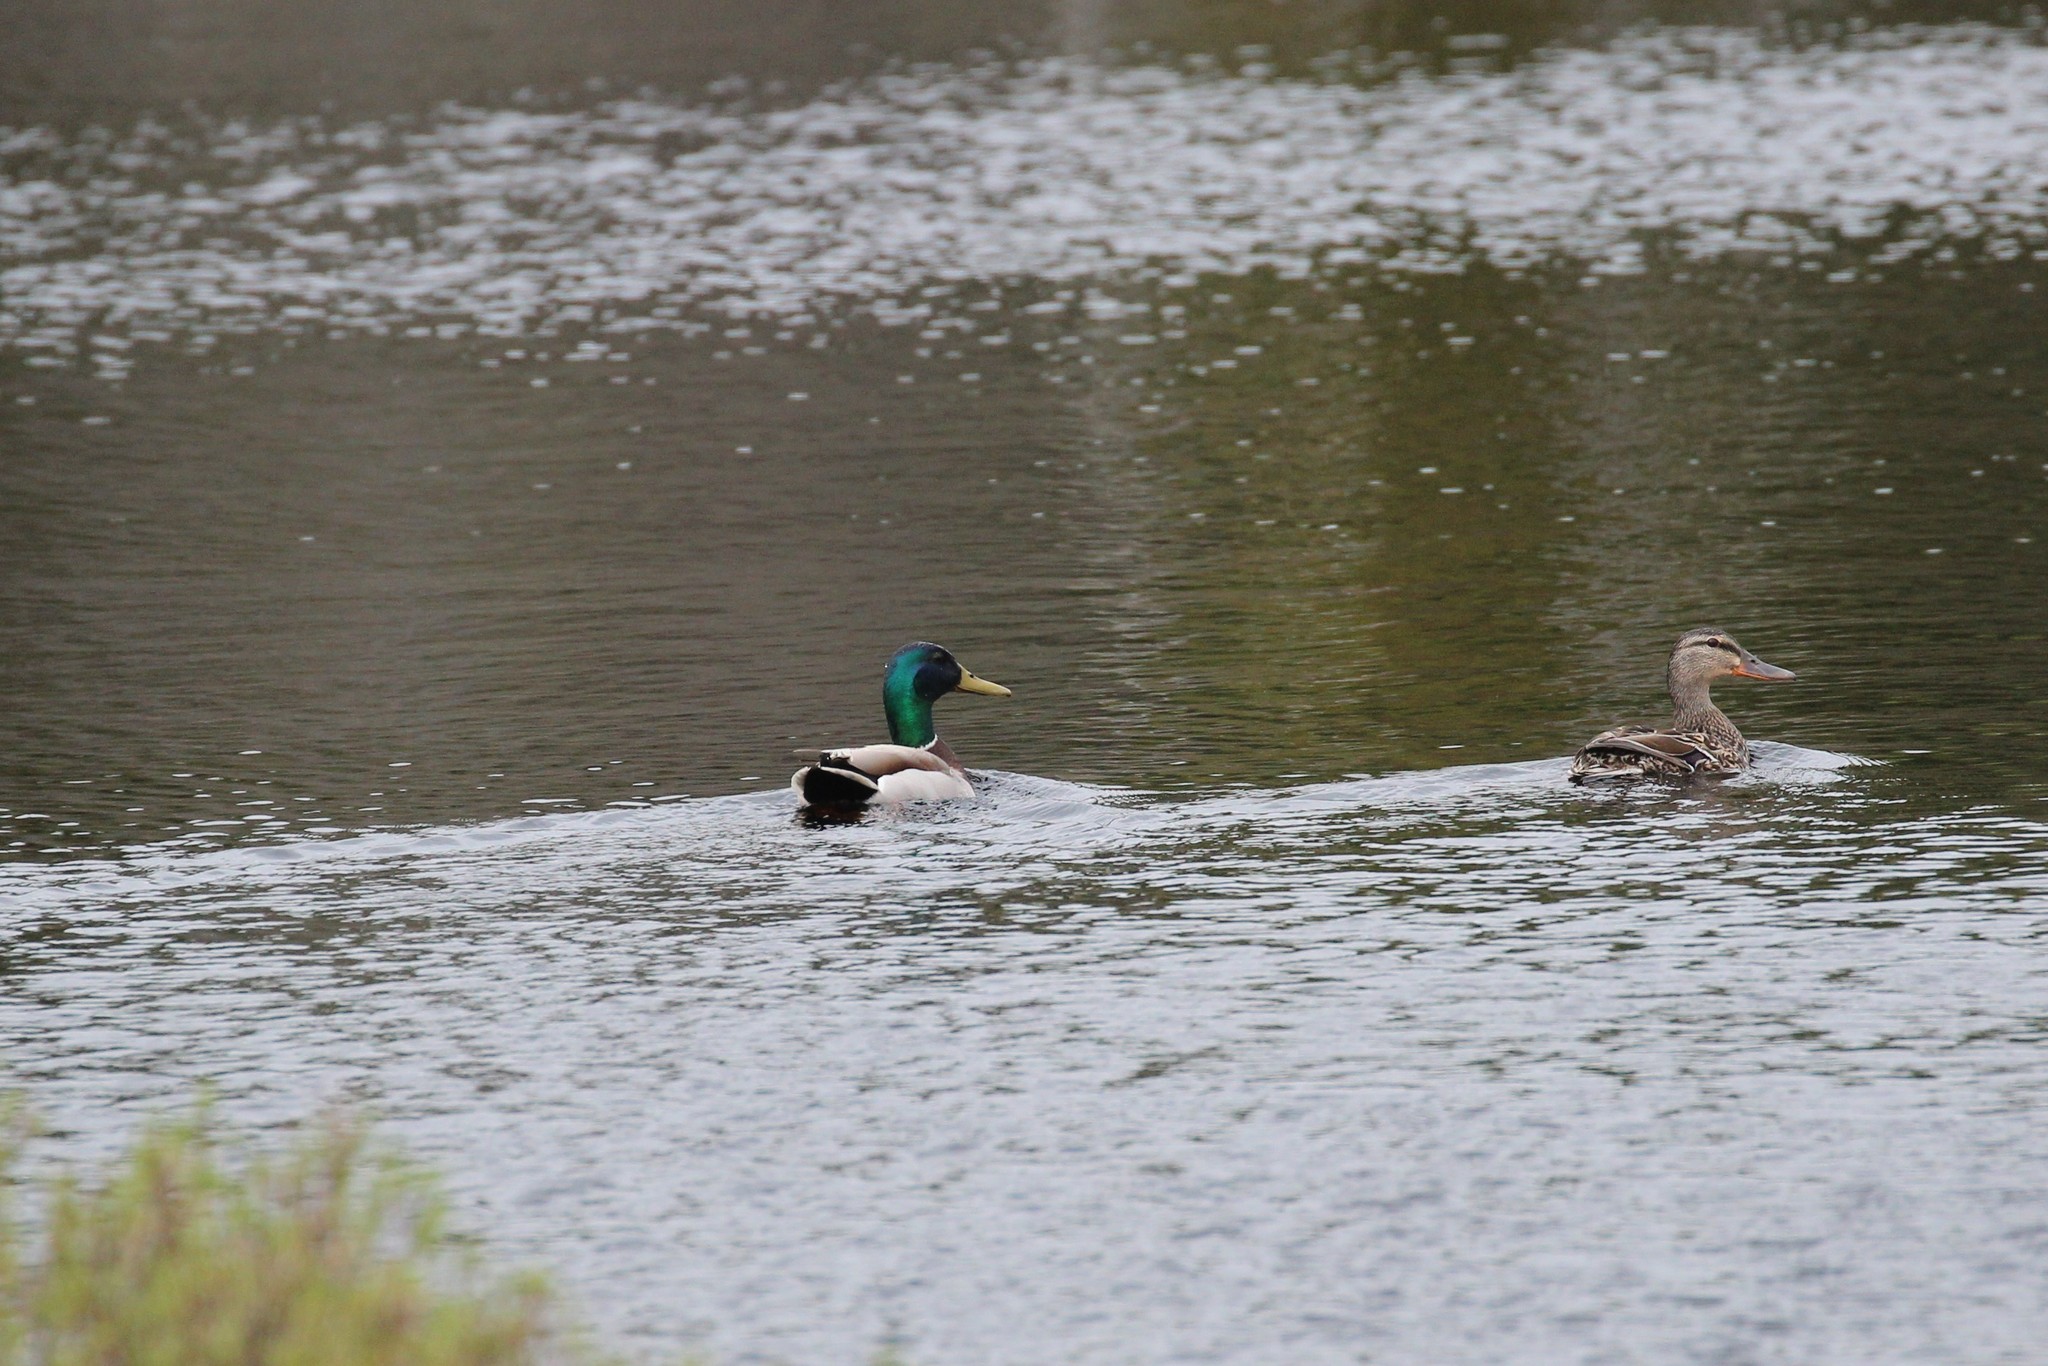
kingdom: Animalia
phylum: Chordata
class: Aves
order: Anseriformes
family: Anatidae
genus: Anas
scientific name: Anas platyrhynchos
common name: Mallard
